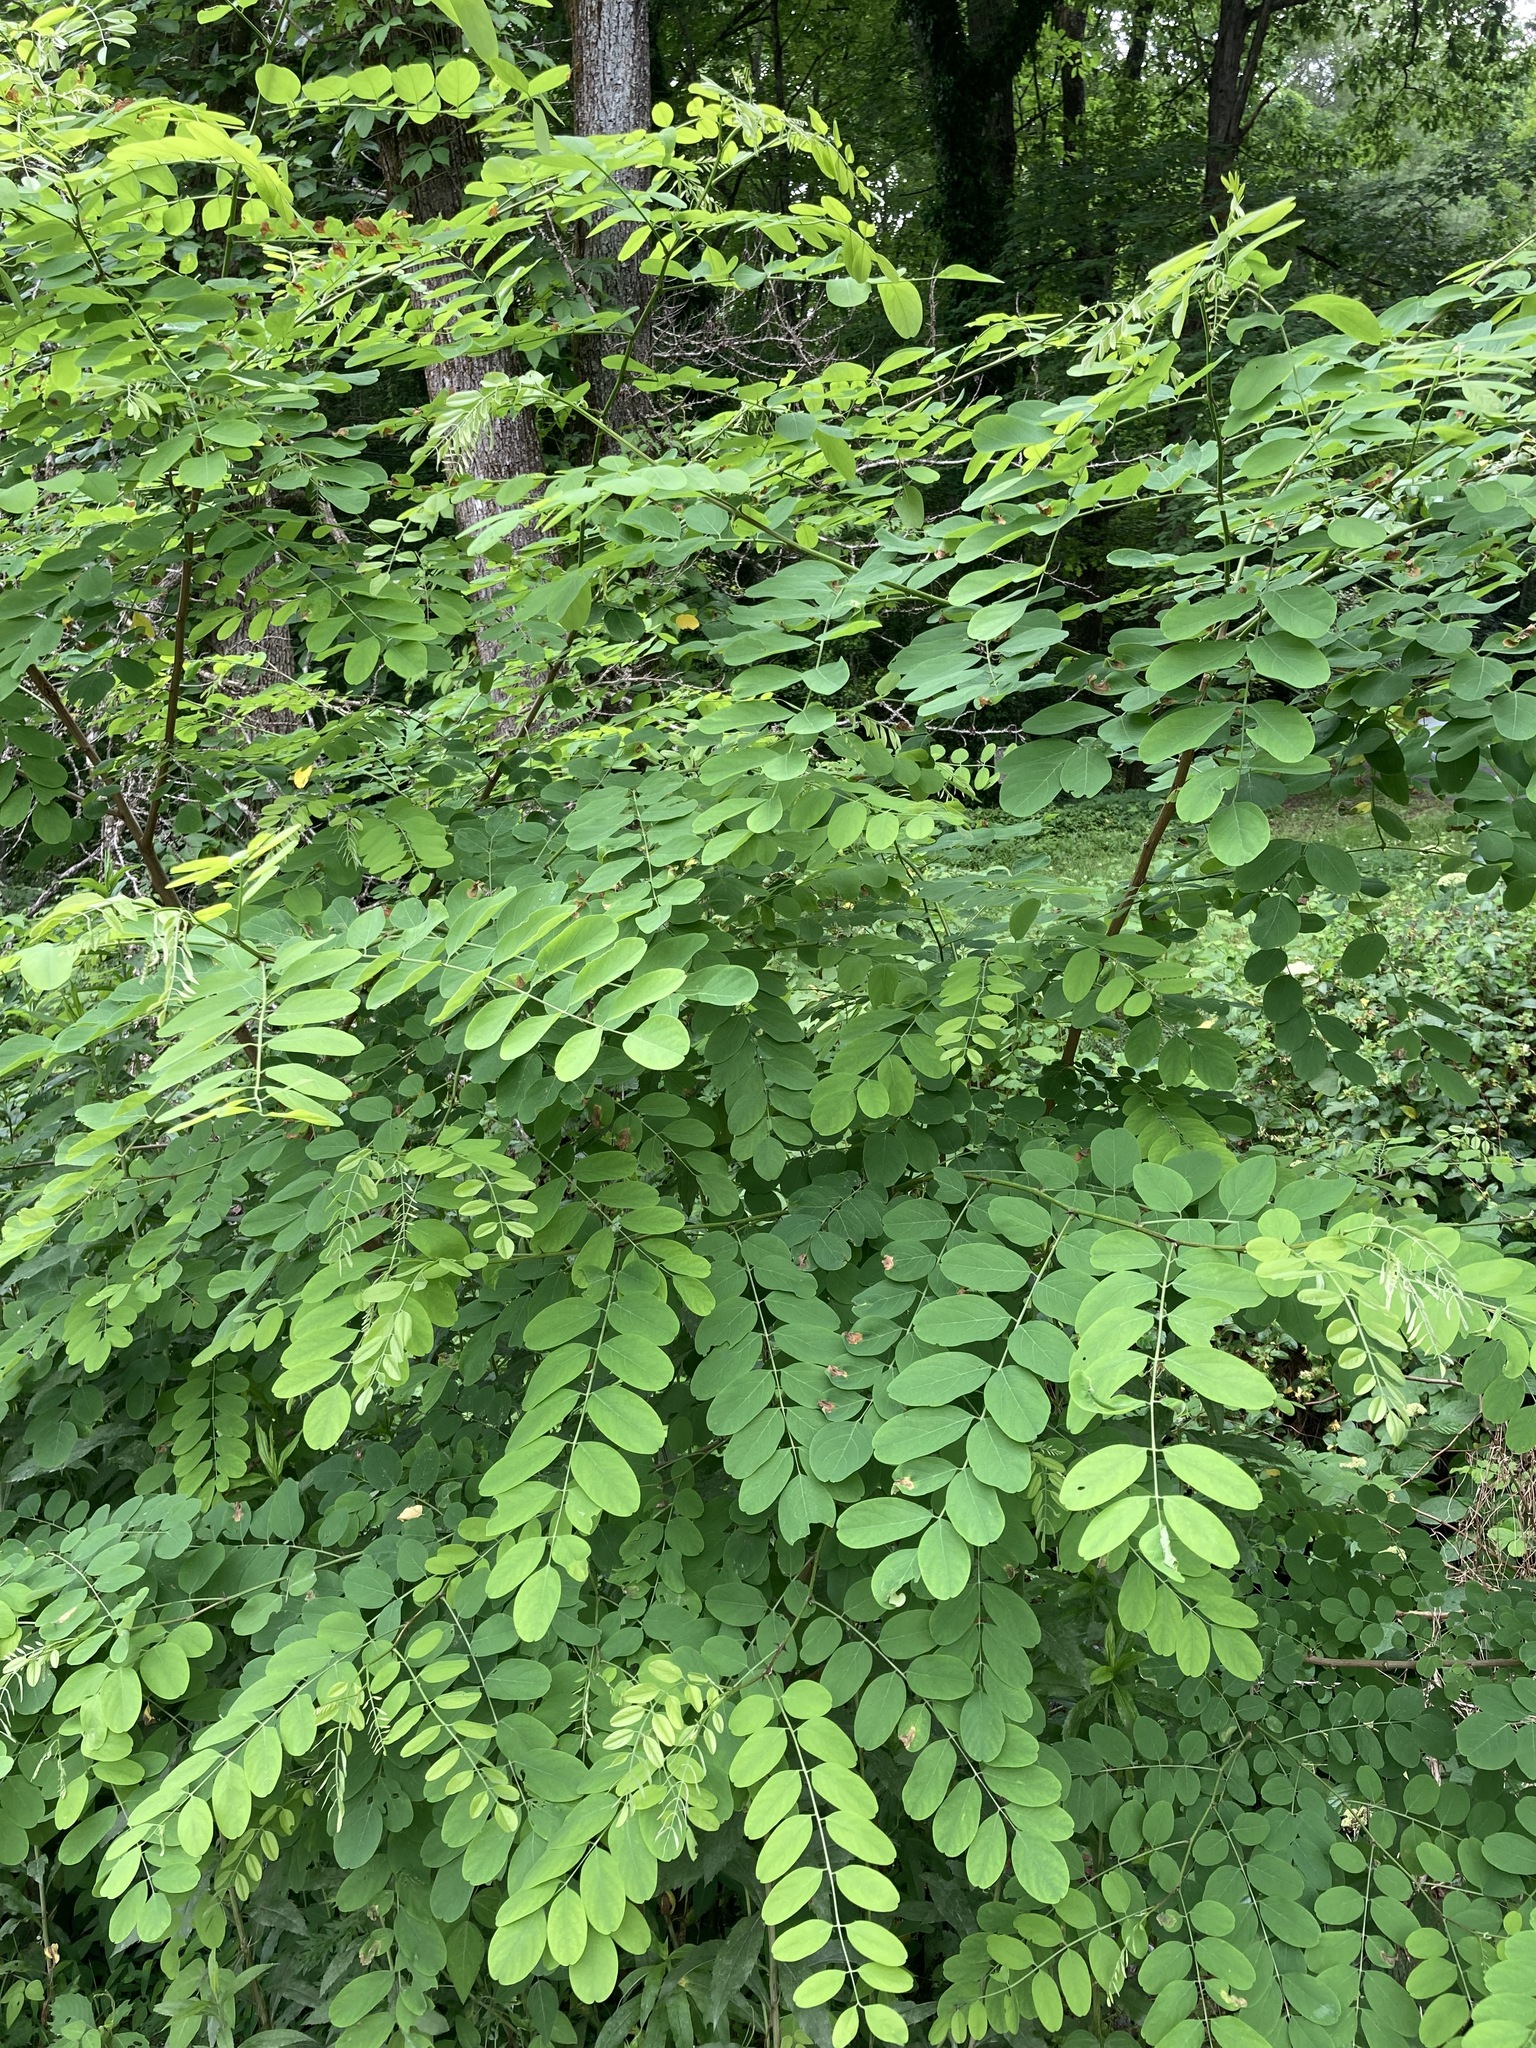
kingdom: Plantae
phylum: Tracheophyta
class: Magnoliopsida
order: Fabales
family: Fabaceae
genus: Robinia
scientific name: Robinia pseudoacacia
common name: Black locust
